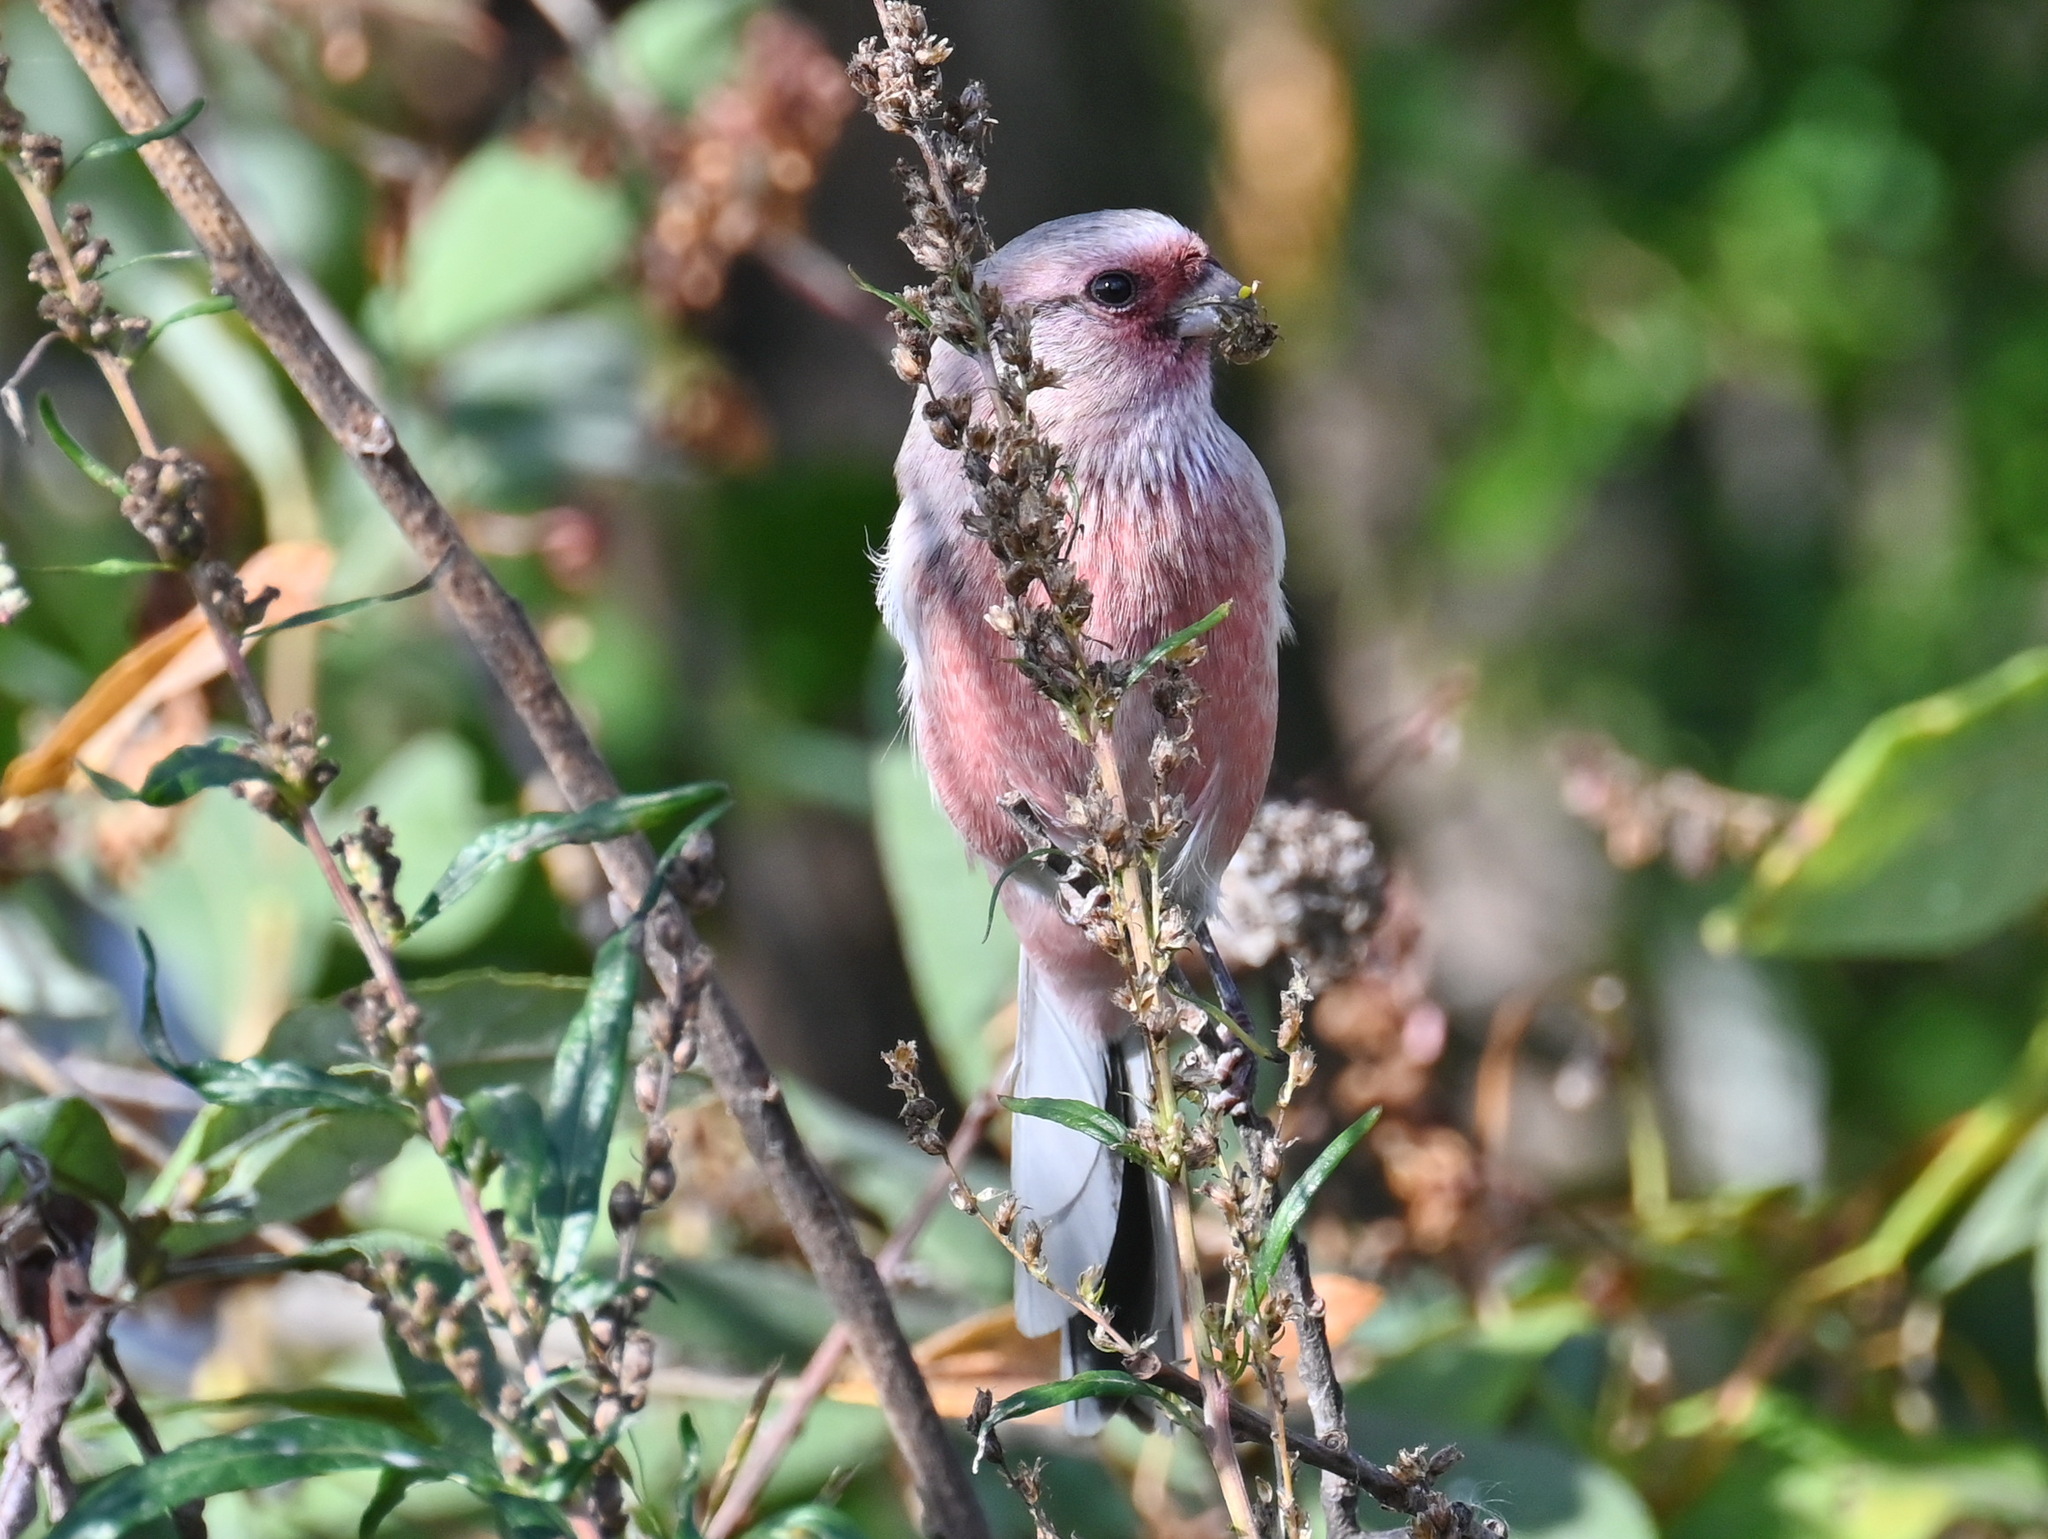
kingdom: Animalia
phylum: Chordata
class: Aves
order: Passeriformes
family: Fringillidae
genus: Carpodacus
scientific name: Carpodacus sibiricus
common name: Long-tailed rosefinch
